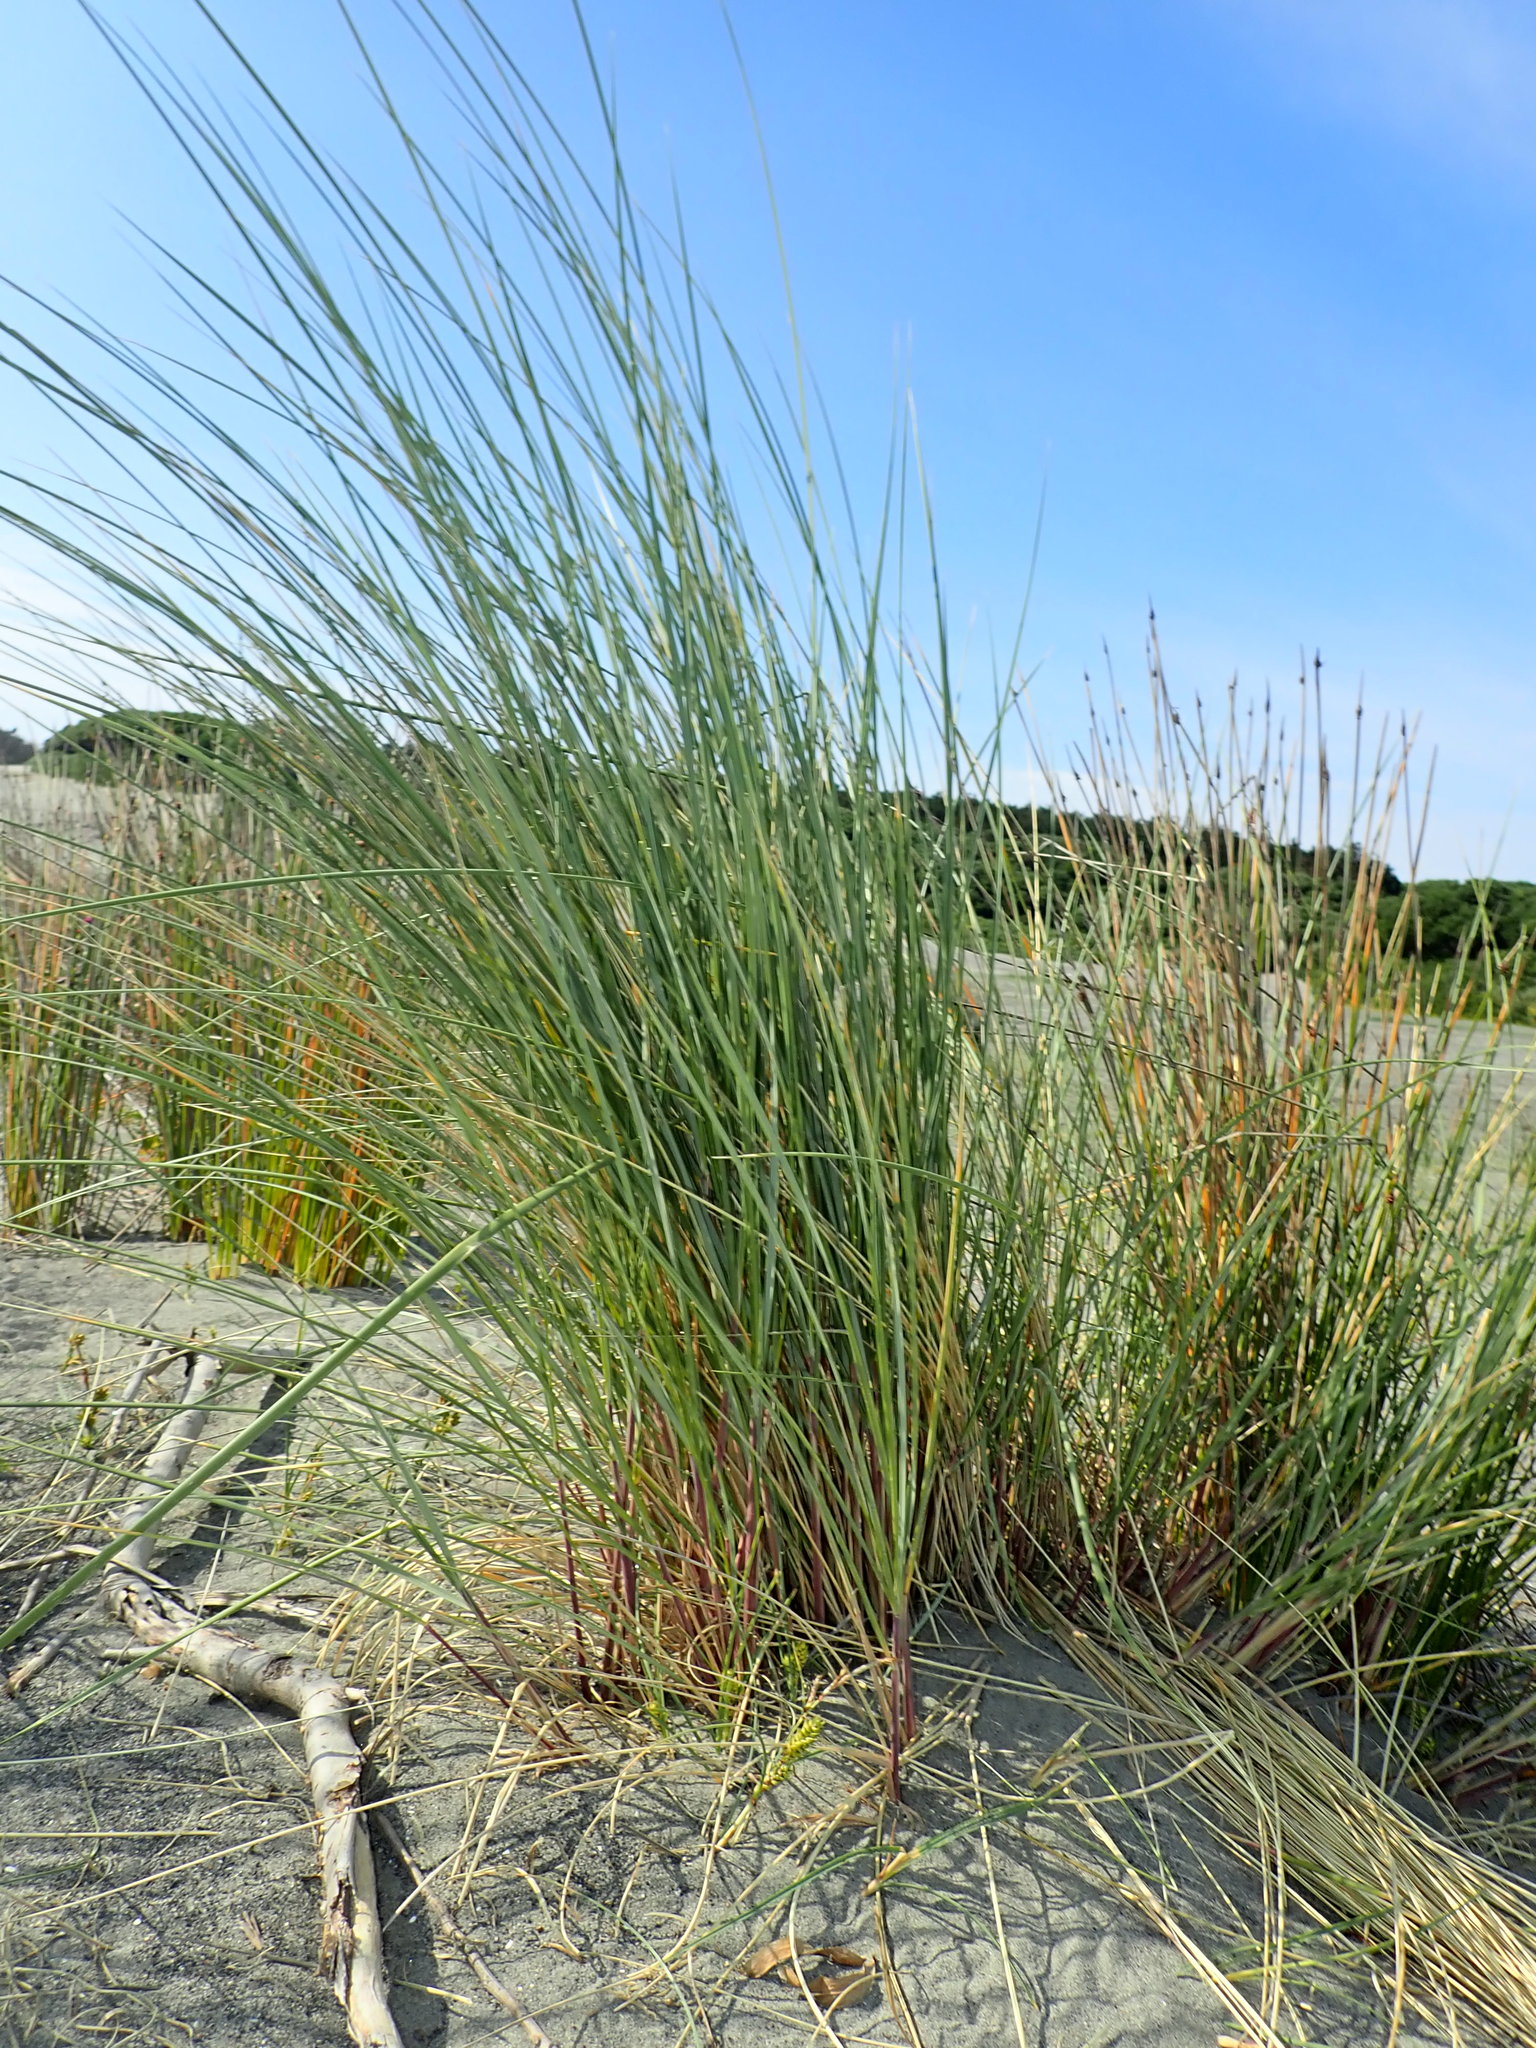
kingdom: Plantae
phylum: Tracheophyta
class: Liliopsida
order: Poales
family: Poaceae
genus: Calamagrostis
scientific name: Calamagrostis arenaria
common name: European beachgrass
